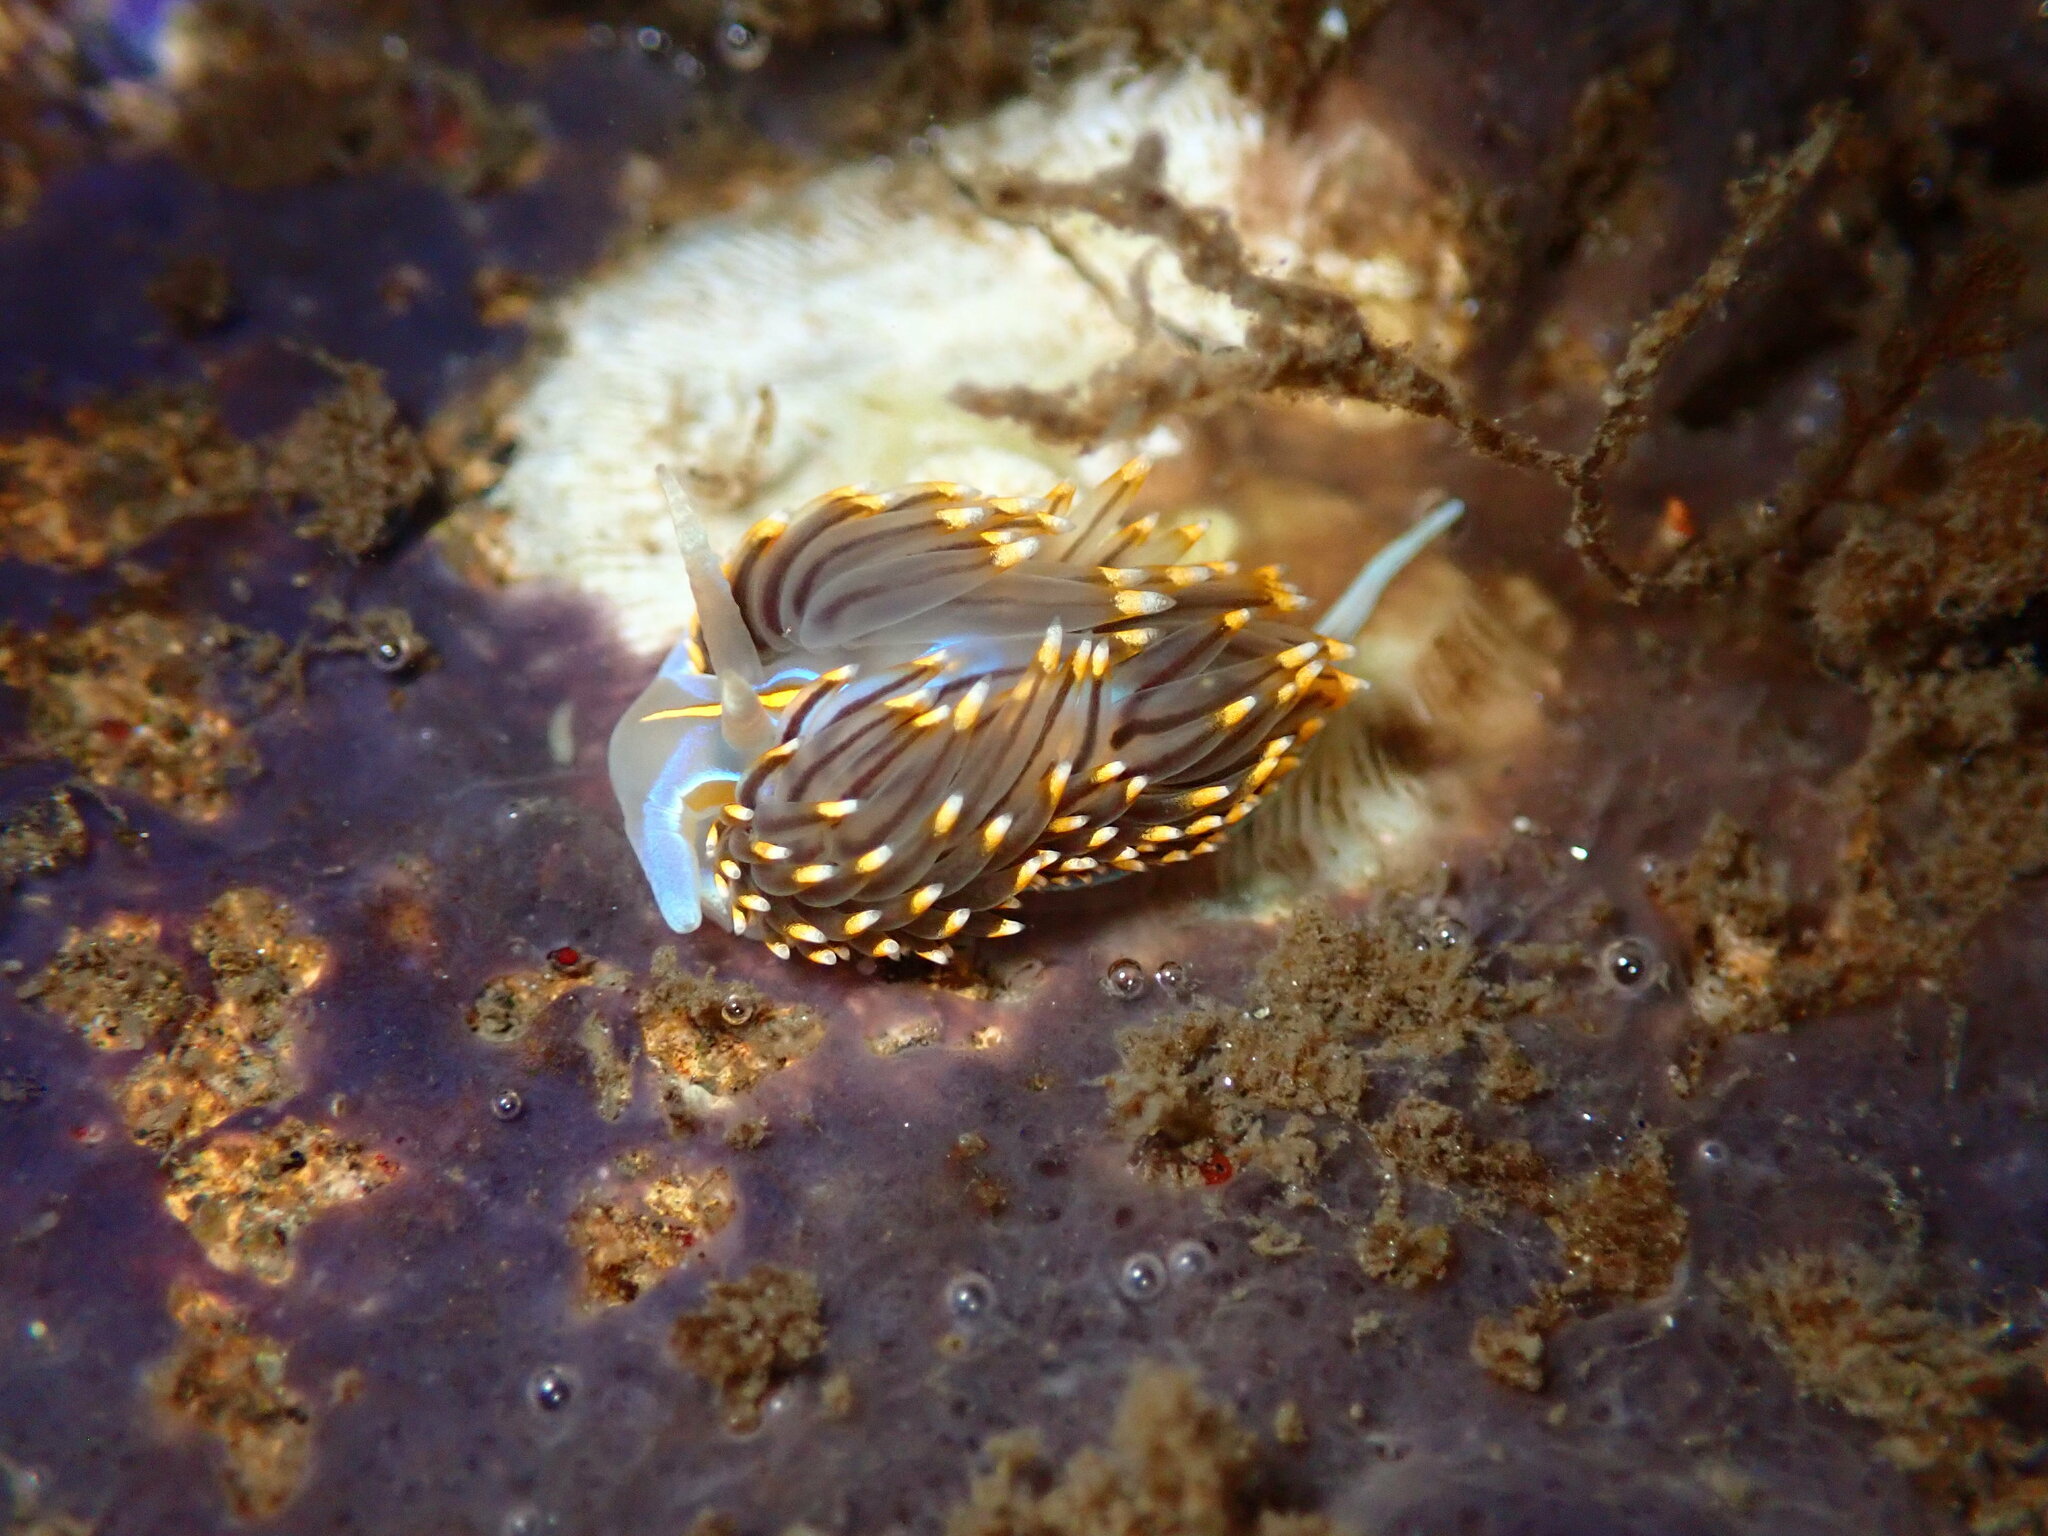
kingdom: Animalia
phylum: Mollusca
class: Gastropoda
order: Nudibranchia
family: Myrrhinidae
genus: Hermissenda
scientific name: Hermissenda opalescens
